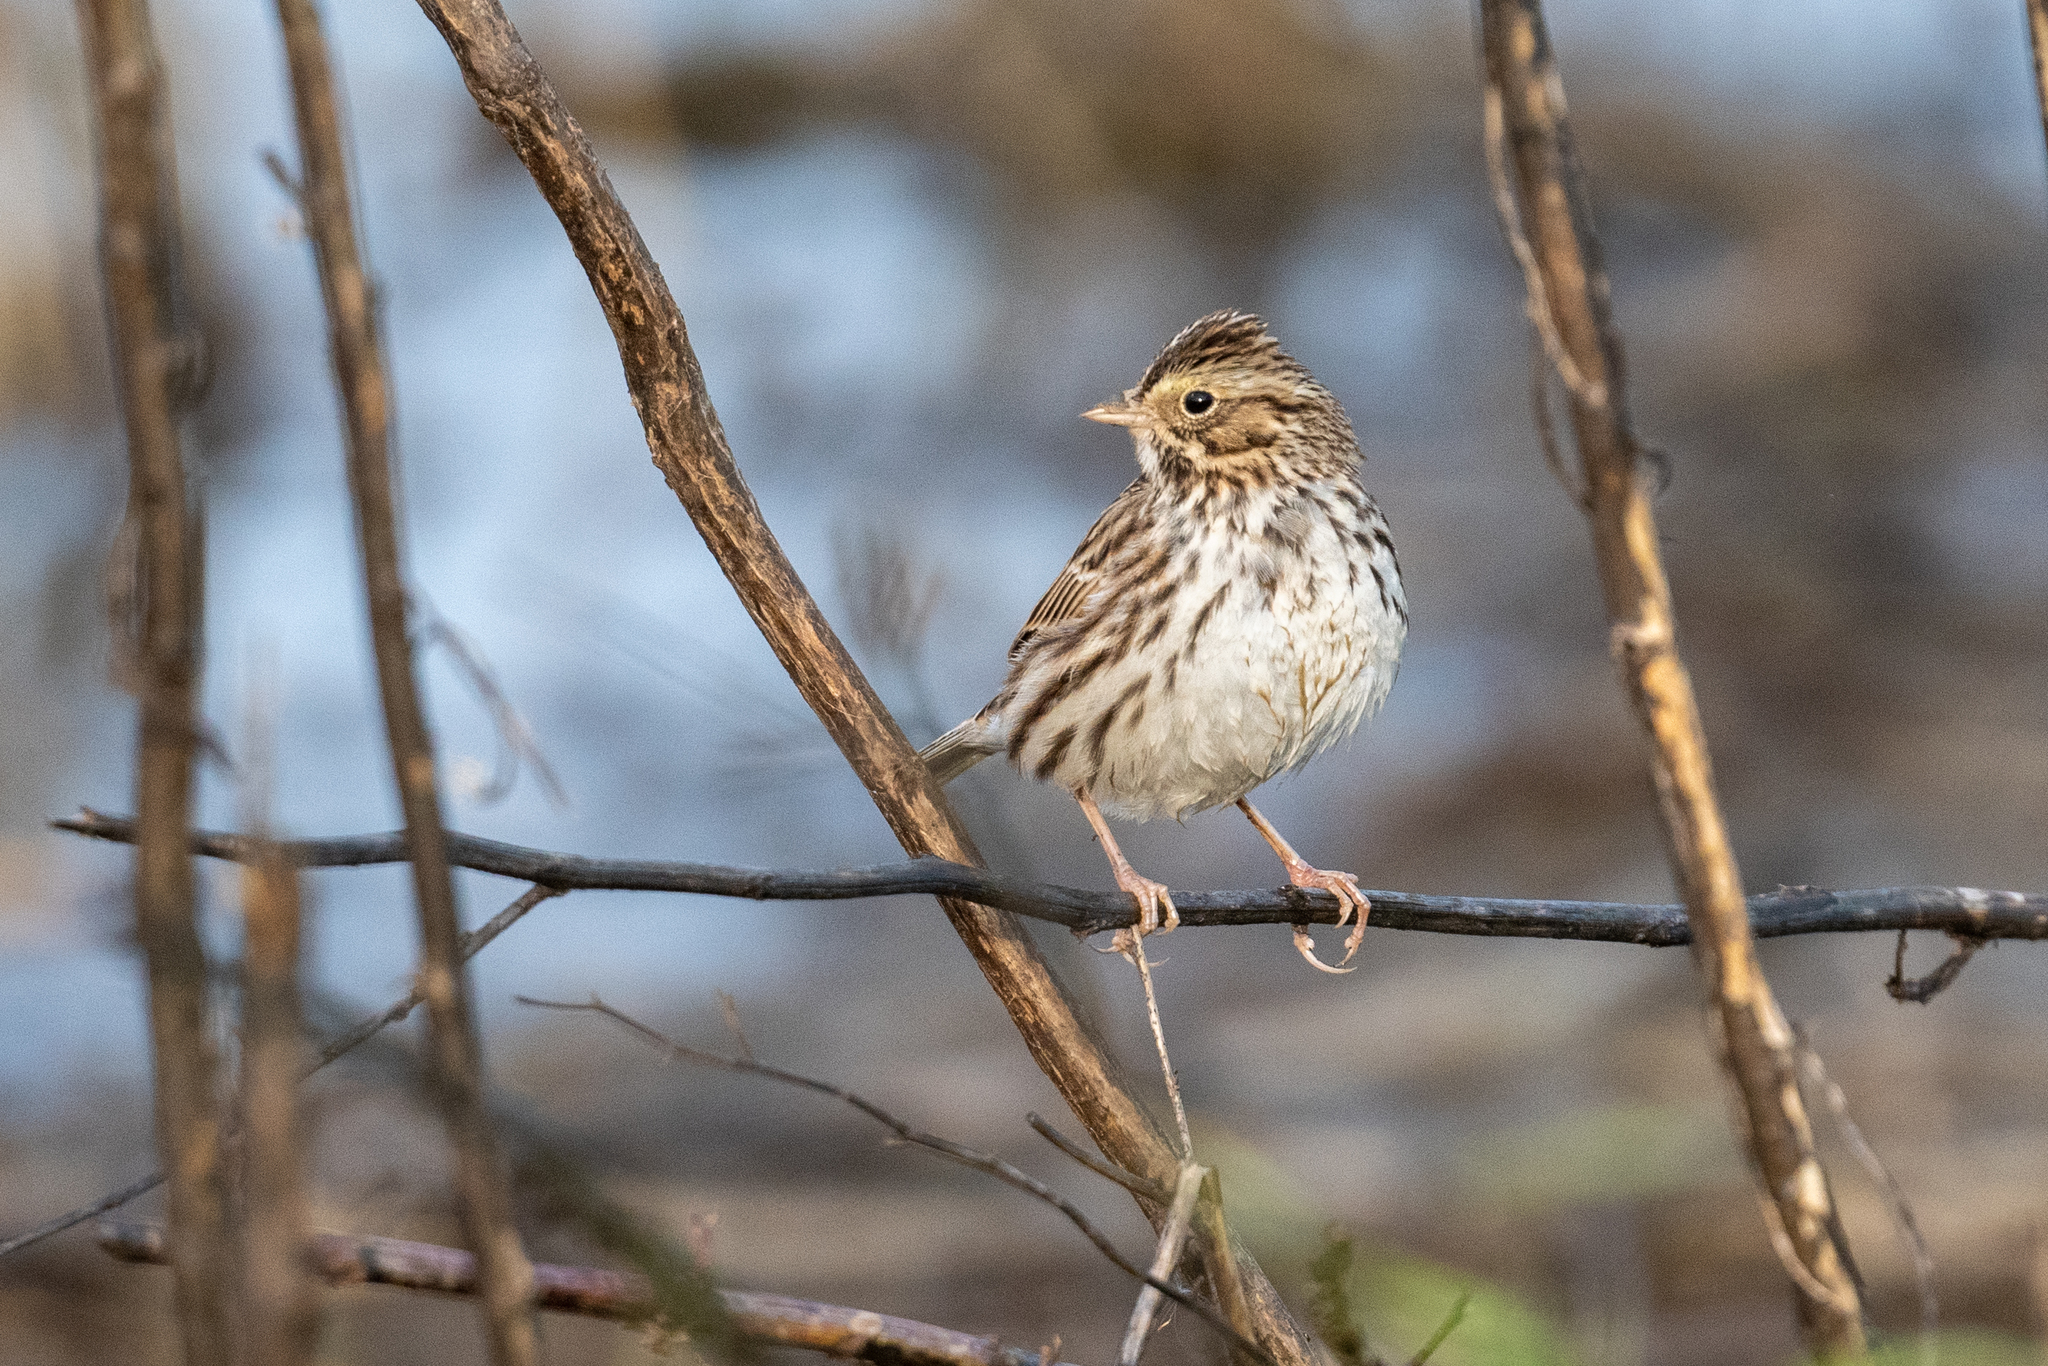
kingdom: Animalia
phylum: Chordata
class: Aves
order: Passeriformes
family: Passerellidae
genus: Passerculus
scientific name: Passerculus sandwichensis
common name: Savannah sparrow
